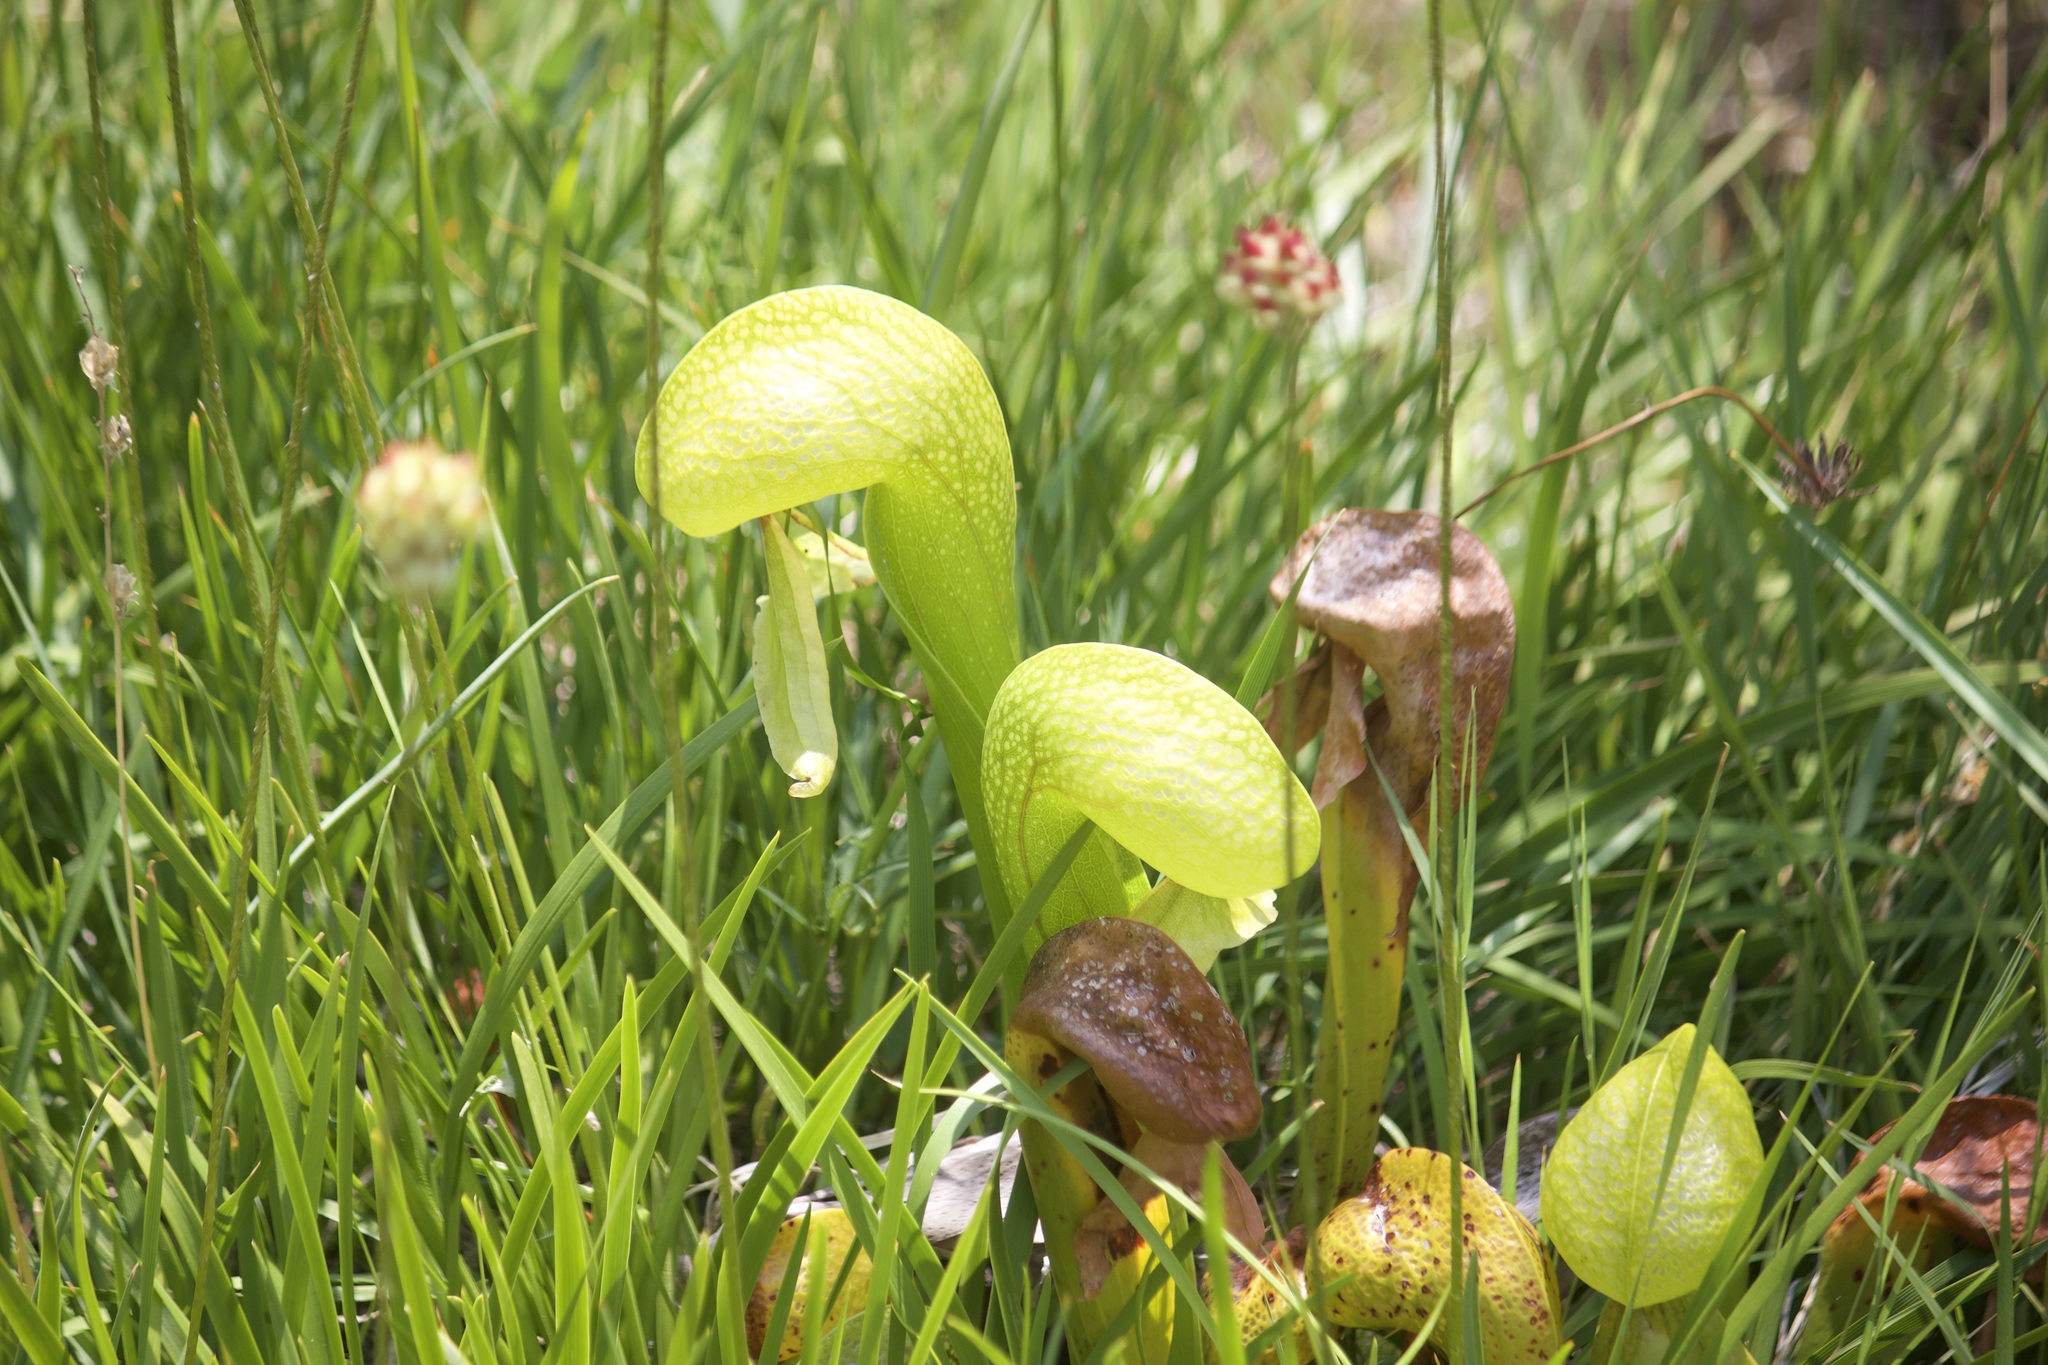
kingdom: Plantae
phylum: Tracheophyta
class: Magnoliopsida
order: Ericales
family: Sarraceniaceae
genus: Darlingtonia
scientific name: Darlingtonia californica
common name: California pitcher plant
